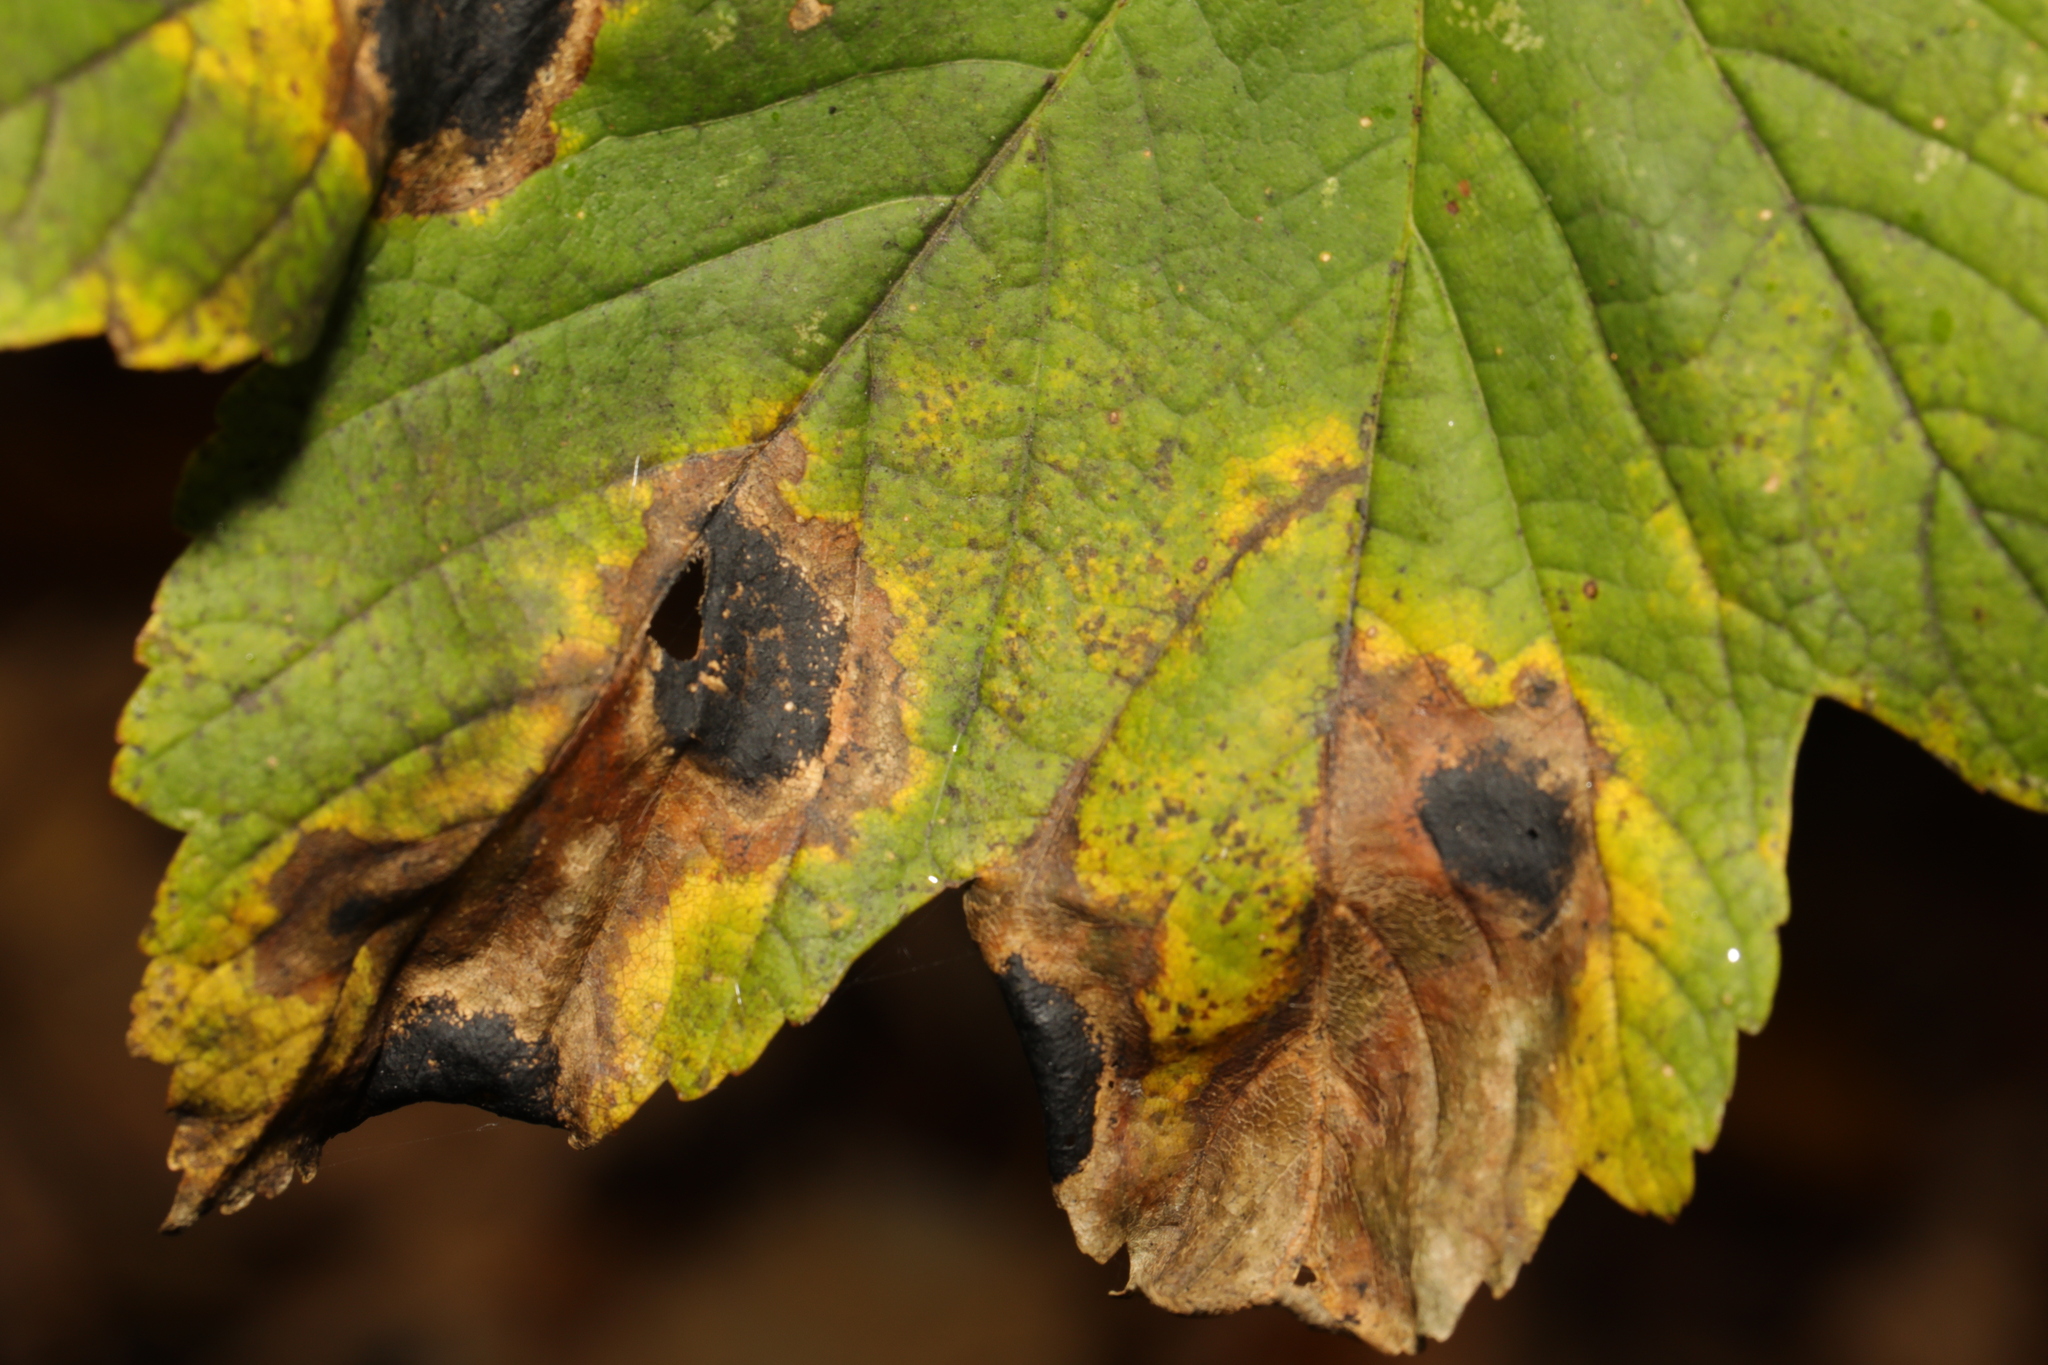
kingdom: Fungi
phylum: Ascomycota
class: Leotiomycetes
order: Rhytismatales
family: Rhytismataceae
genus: Rhytisma
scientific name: Rhytisma acerinum
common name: European tar spot
